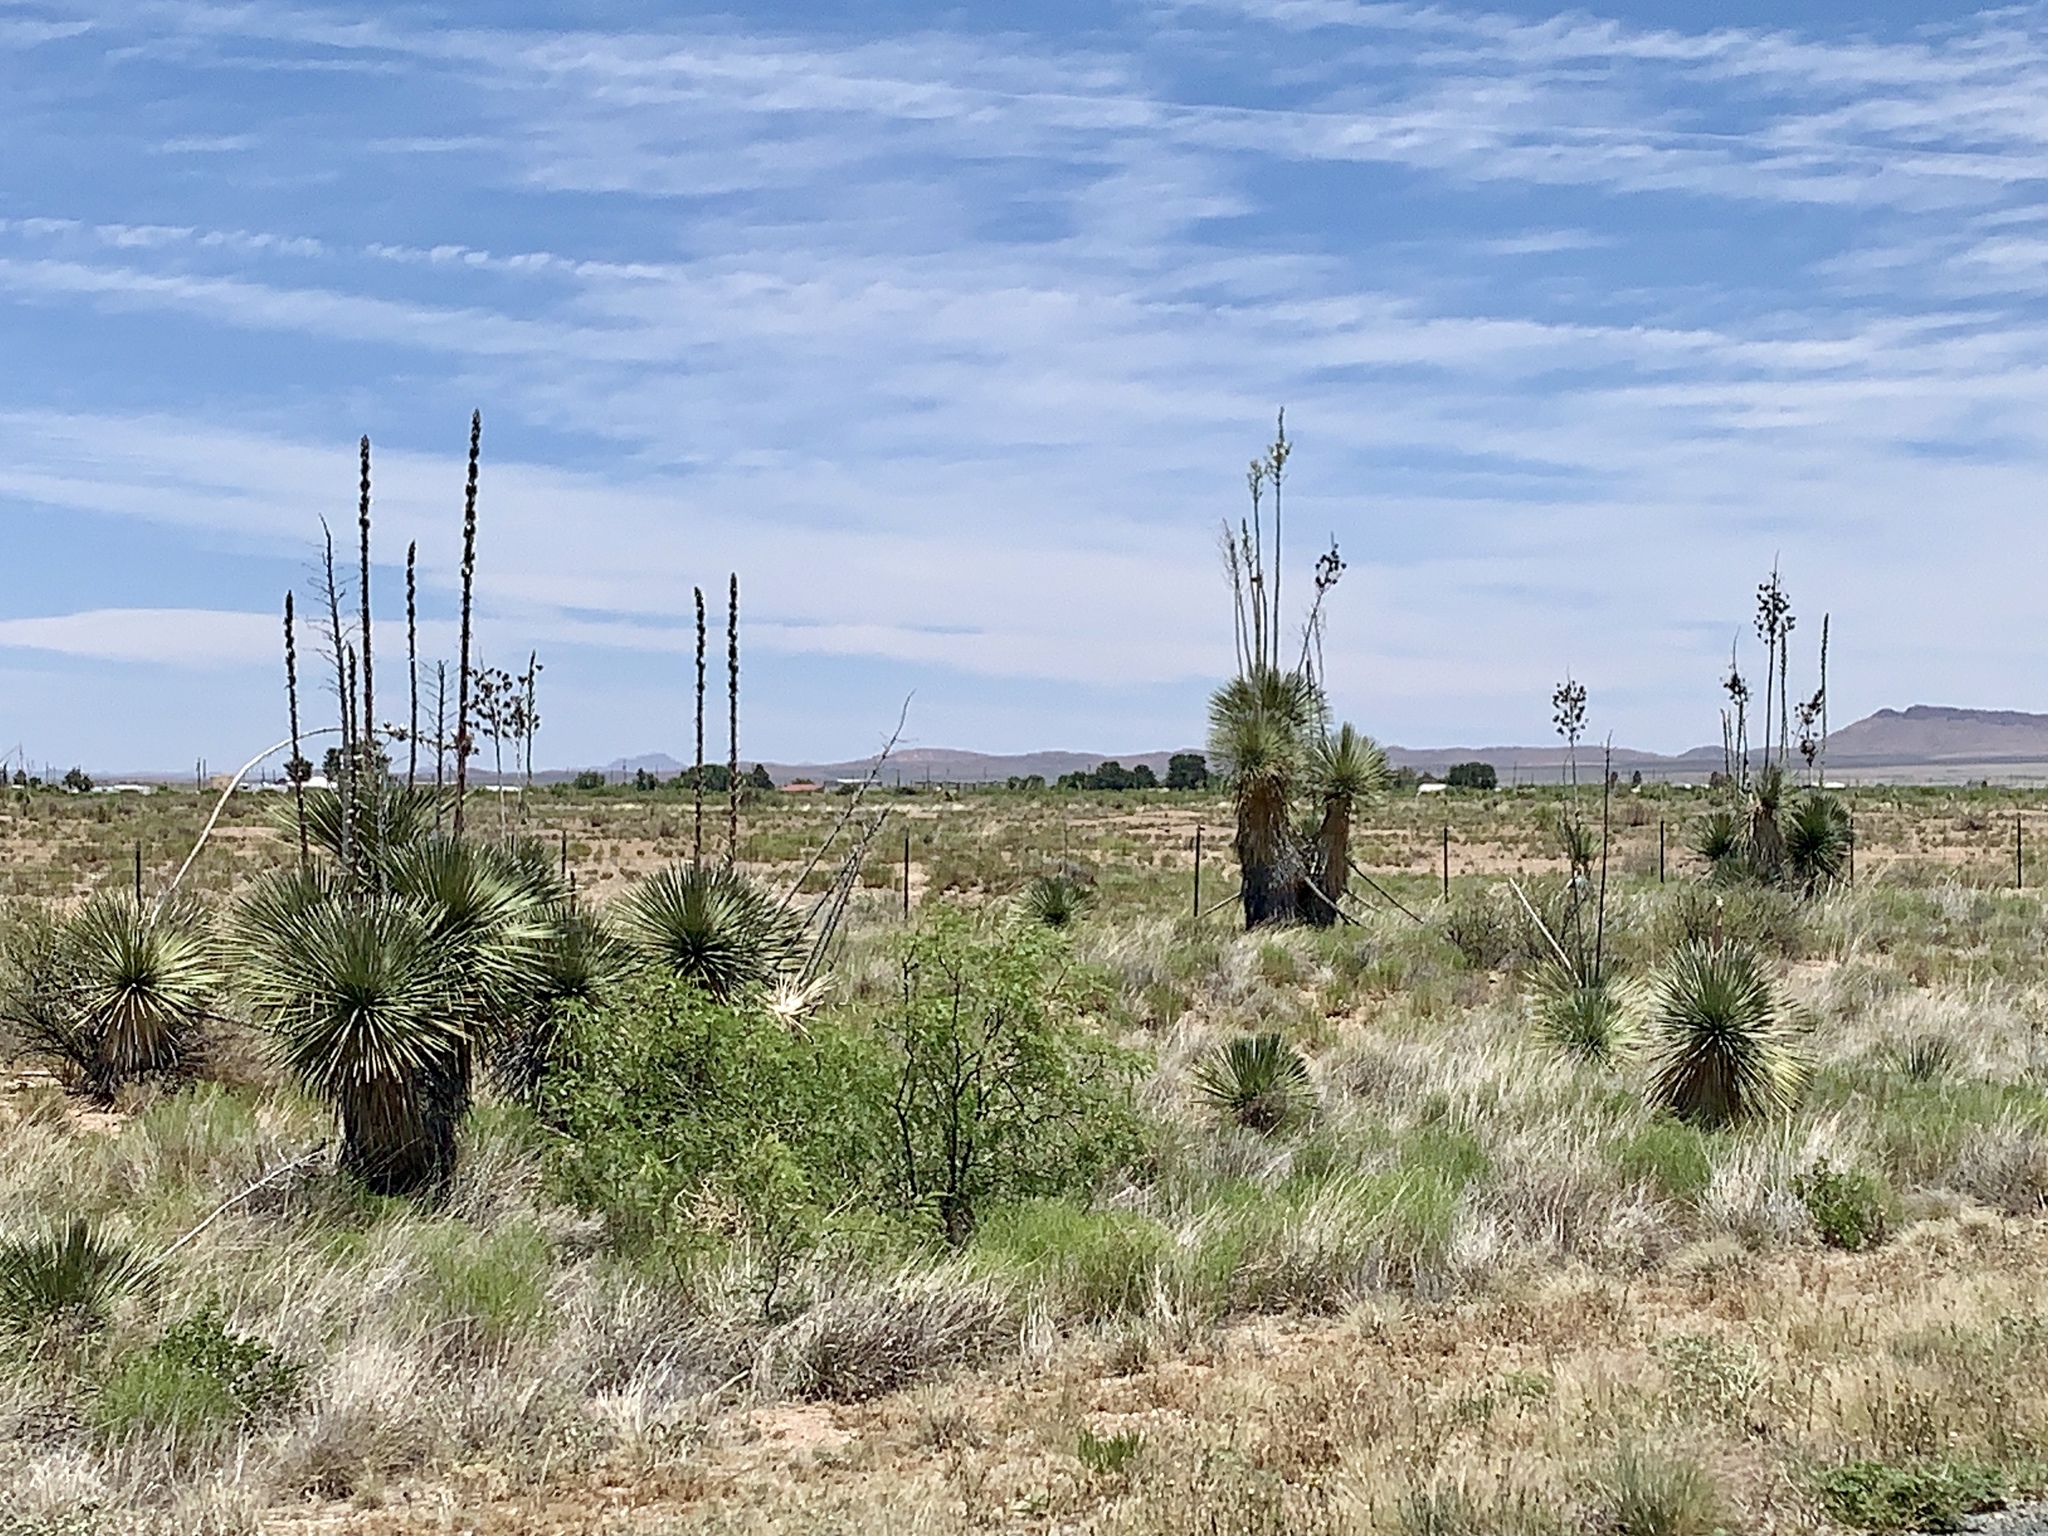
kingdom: Plantae
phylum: Tracheophyta
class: Liliopsida
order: Asparagales
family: Asparagaceae
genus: Yucca
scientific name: Yucca elata
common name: Palmella
